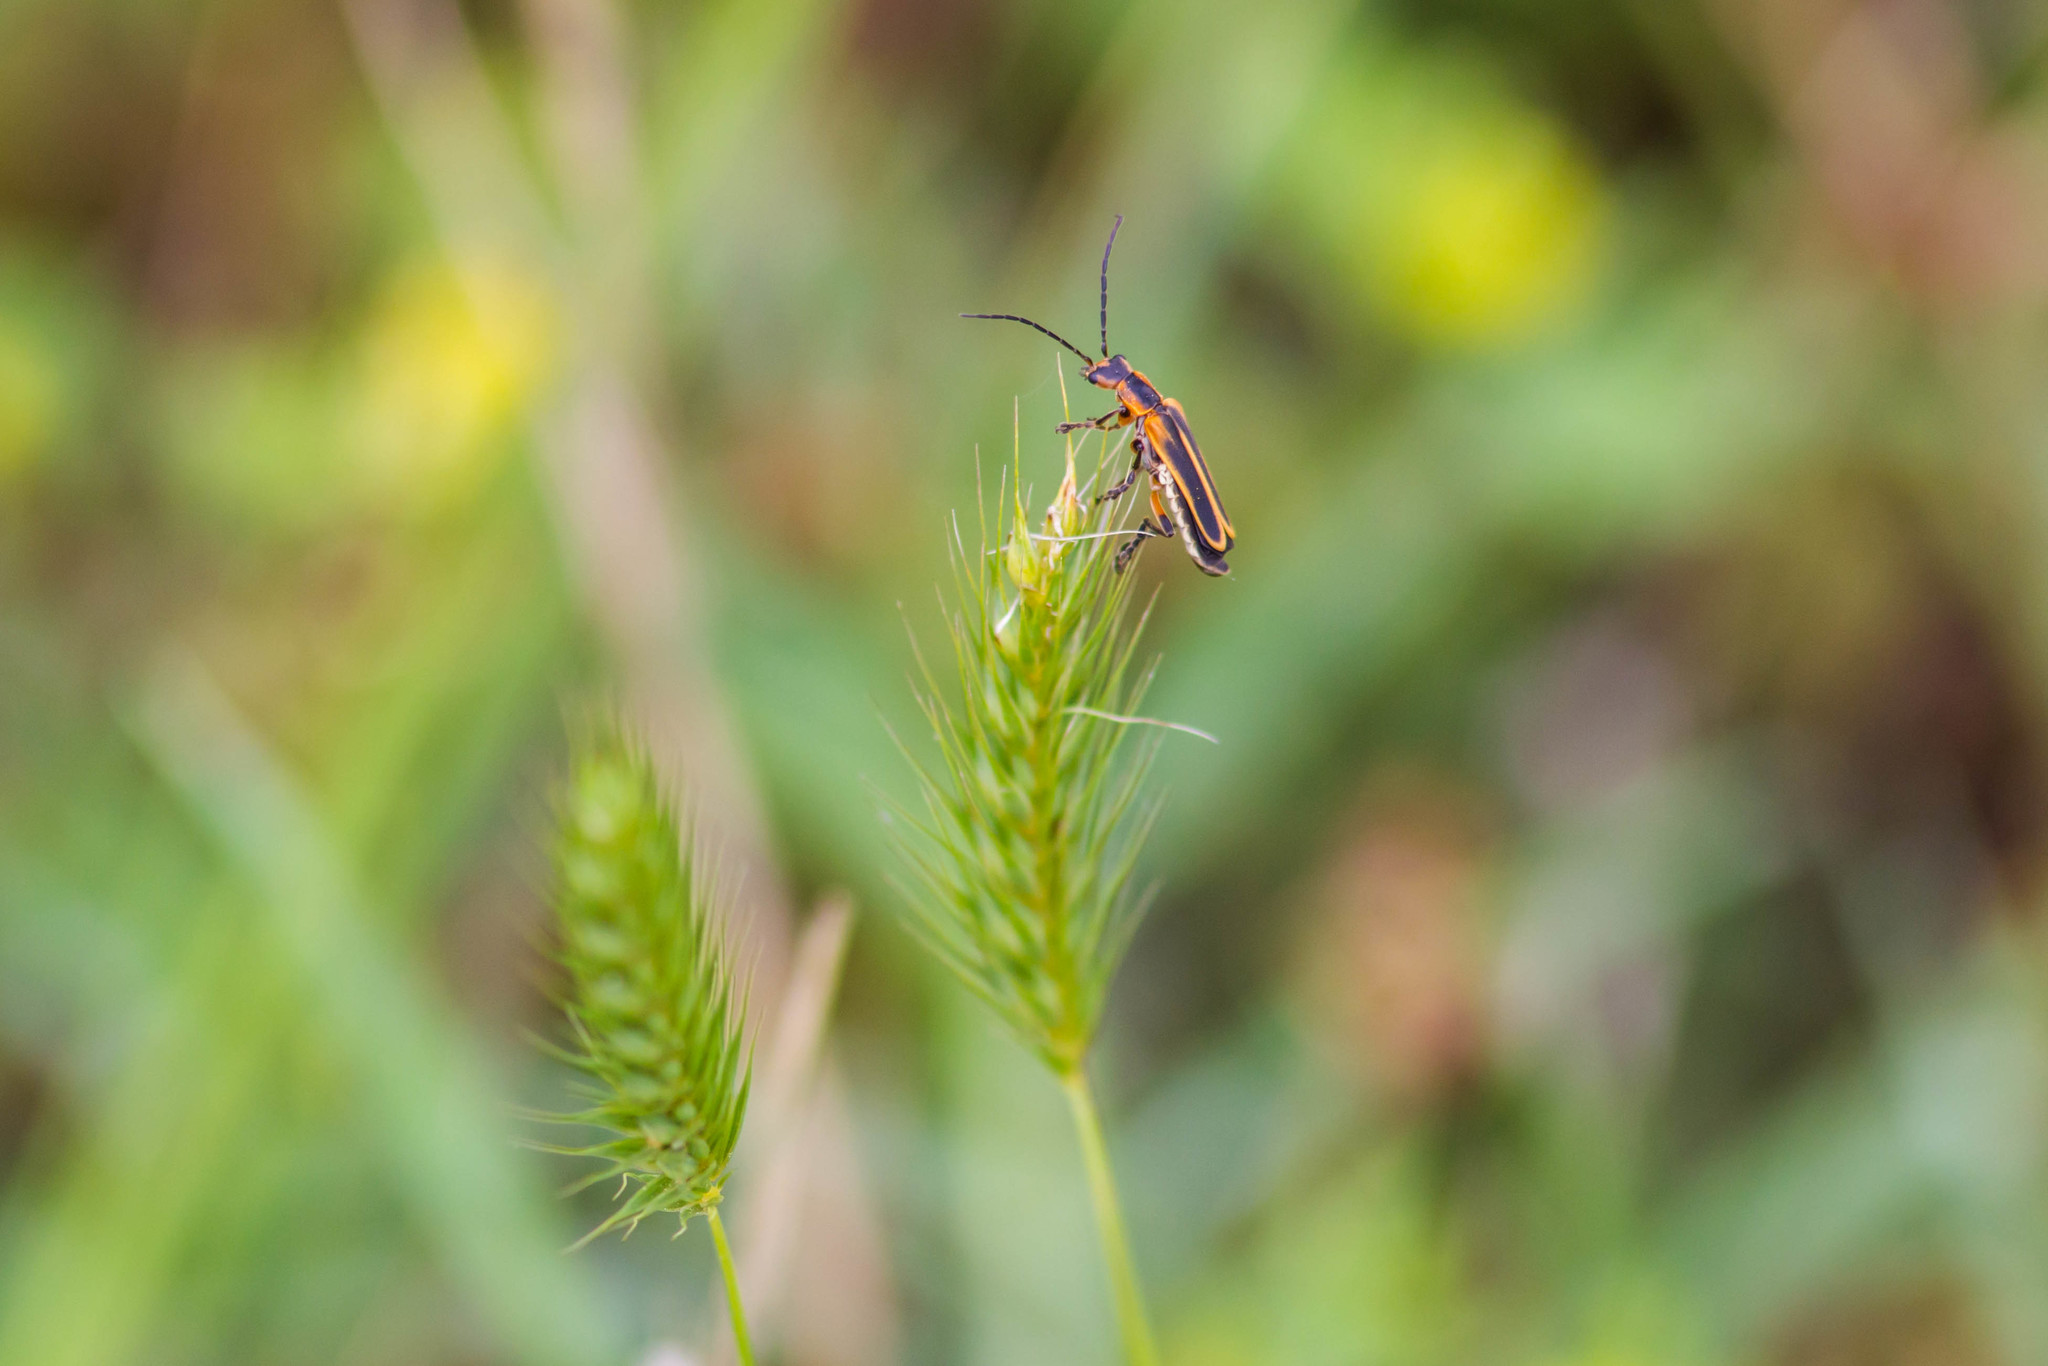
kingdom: Animalia
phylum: Arthropoda
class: Insecta
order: Coleoptera
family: Cantharidae
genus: Chauliognathus
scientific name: Chauliognathus marginatus
